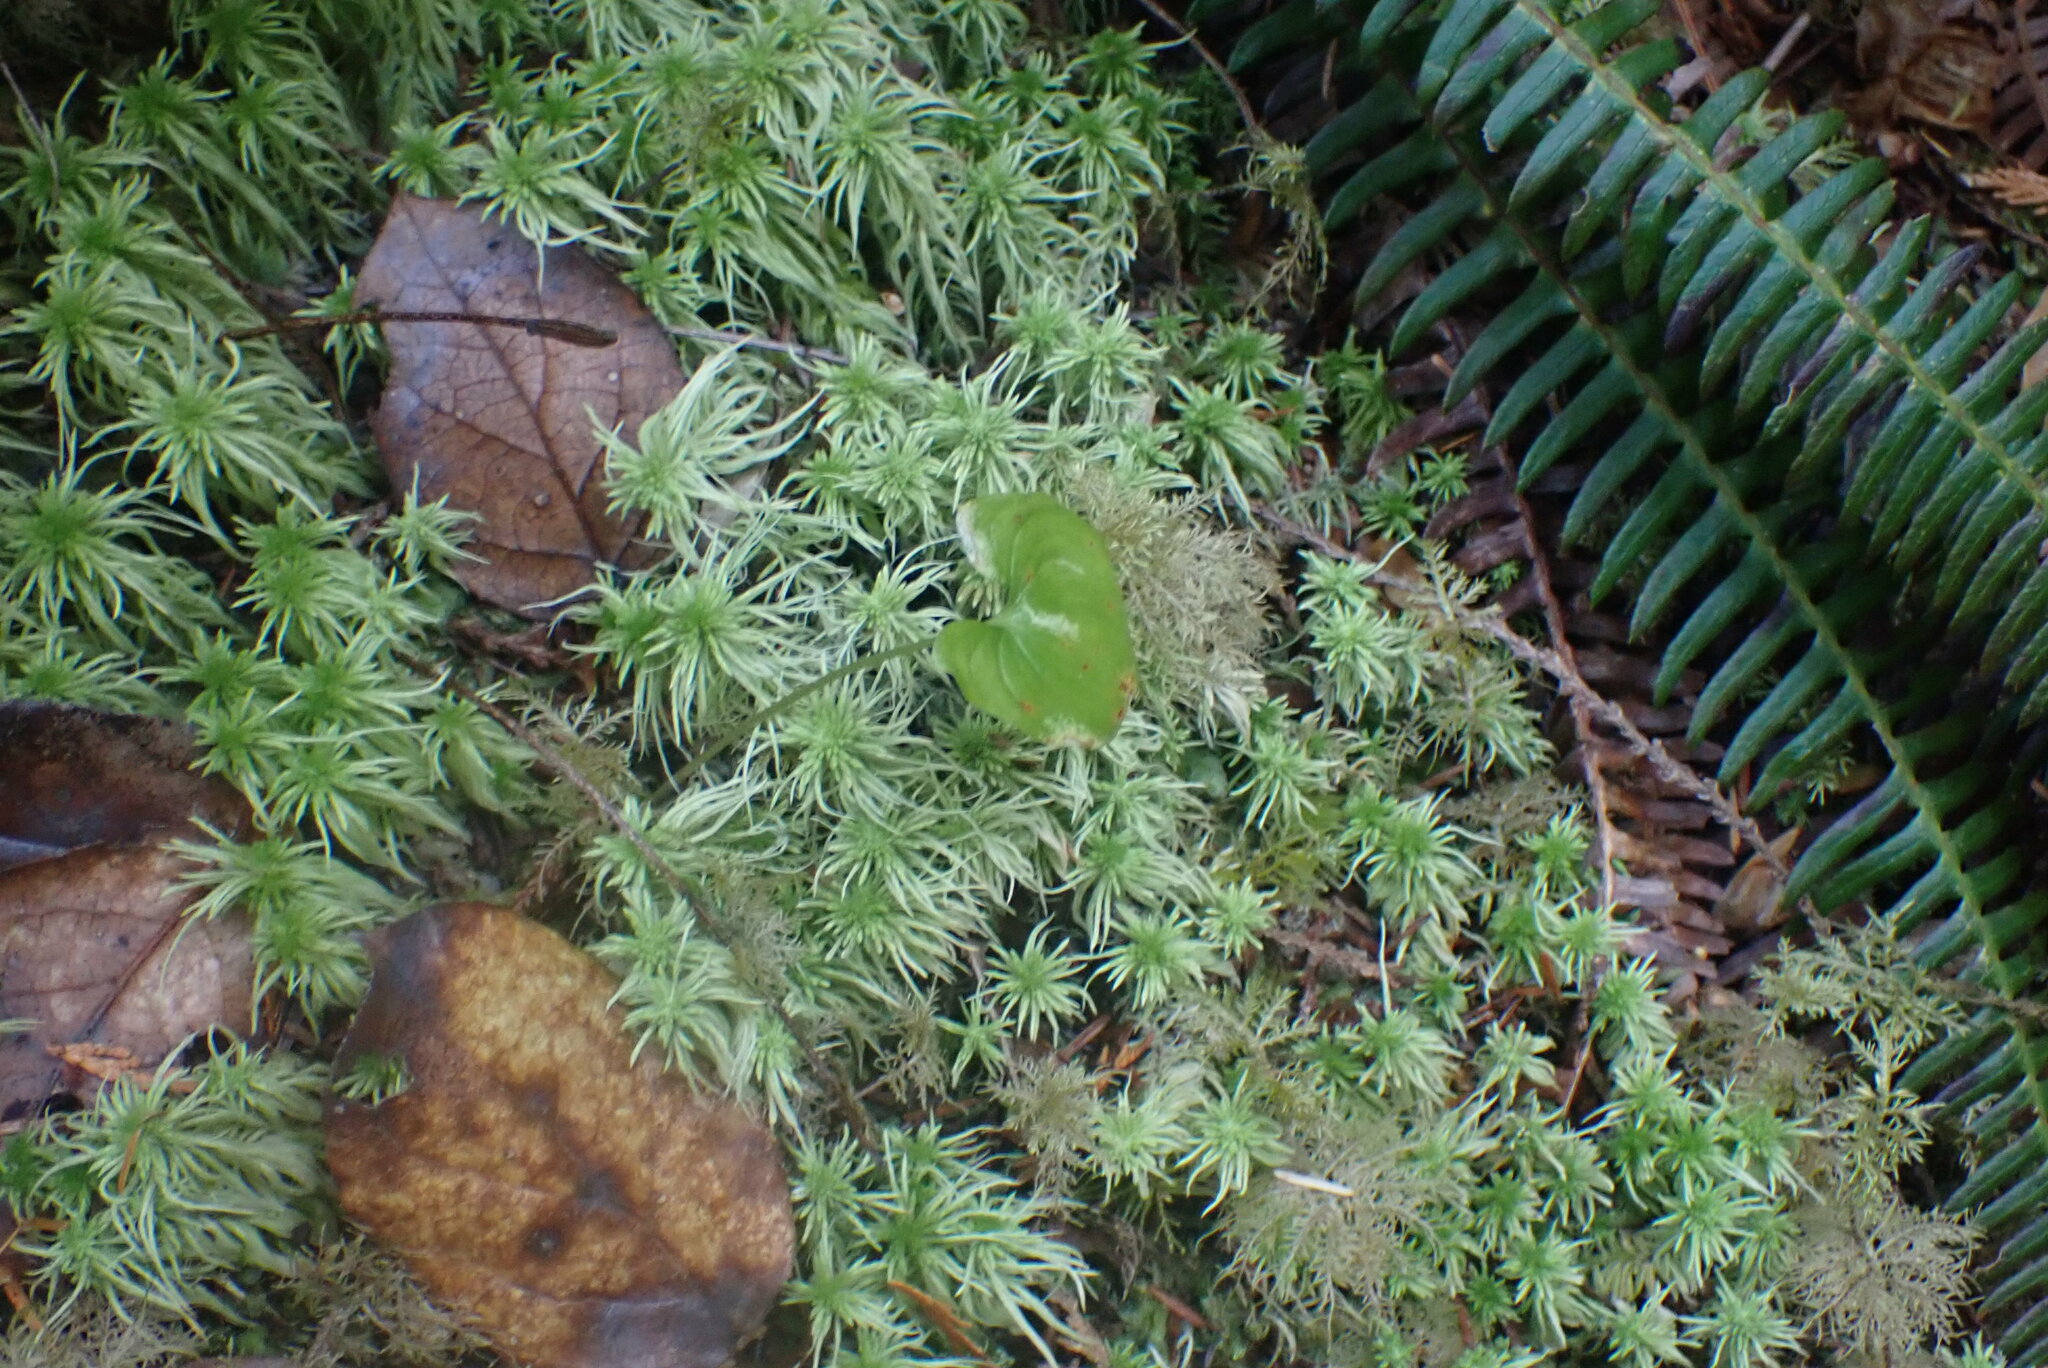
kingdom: Plantae
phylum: Bryophyta
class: Sphagnopsida
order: Sphagnales
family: Sphagnaceae
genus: Sphagnum
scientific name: Sphagnum rubiginosum
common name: Variegated peat moss
